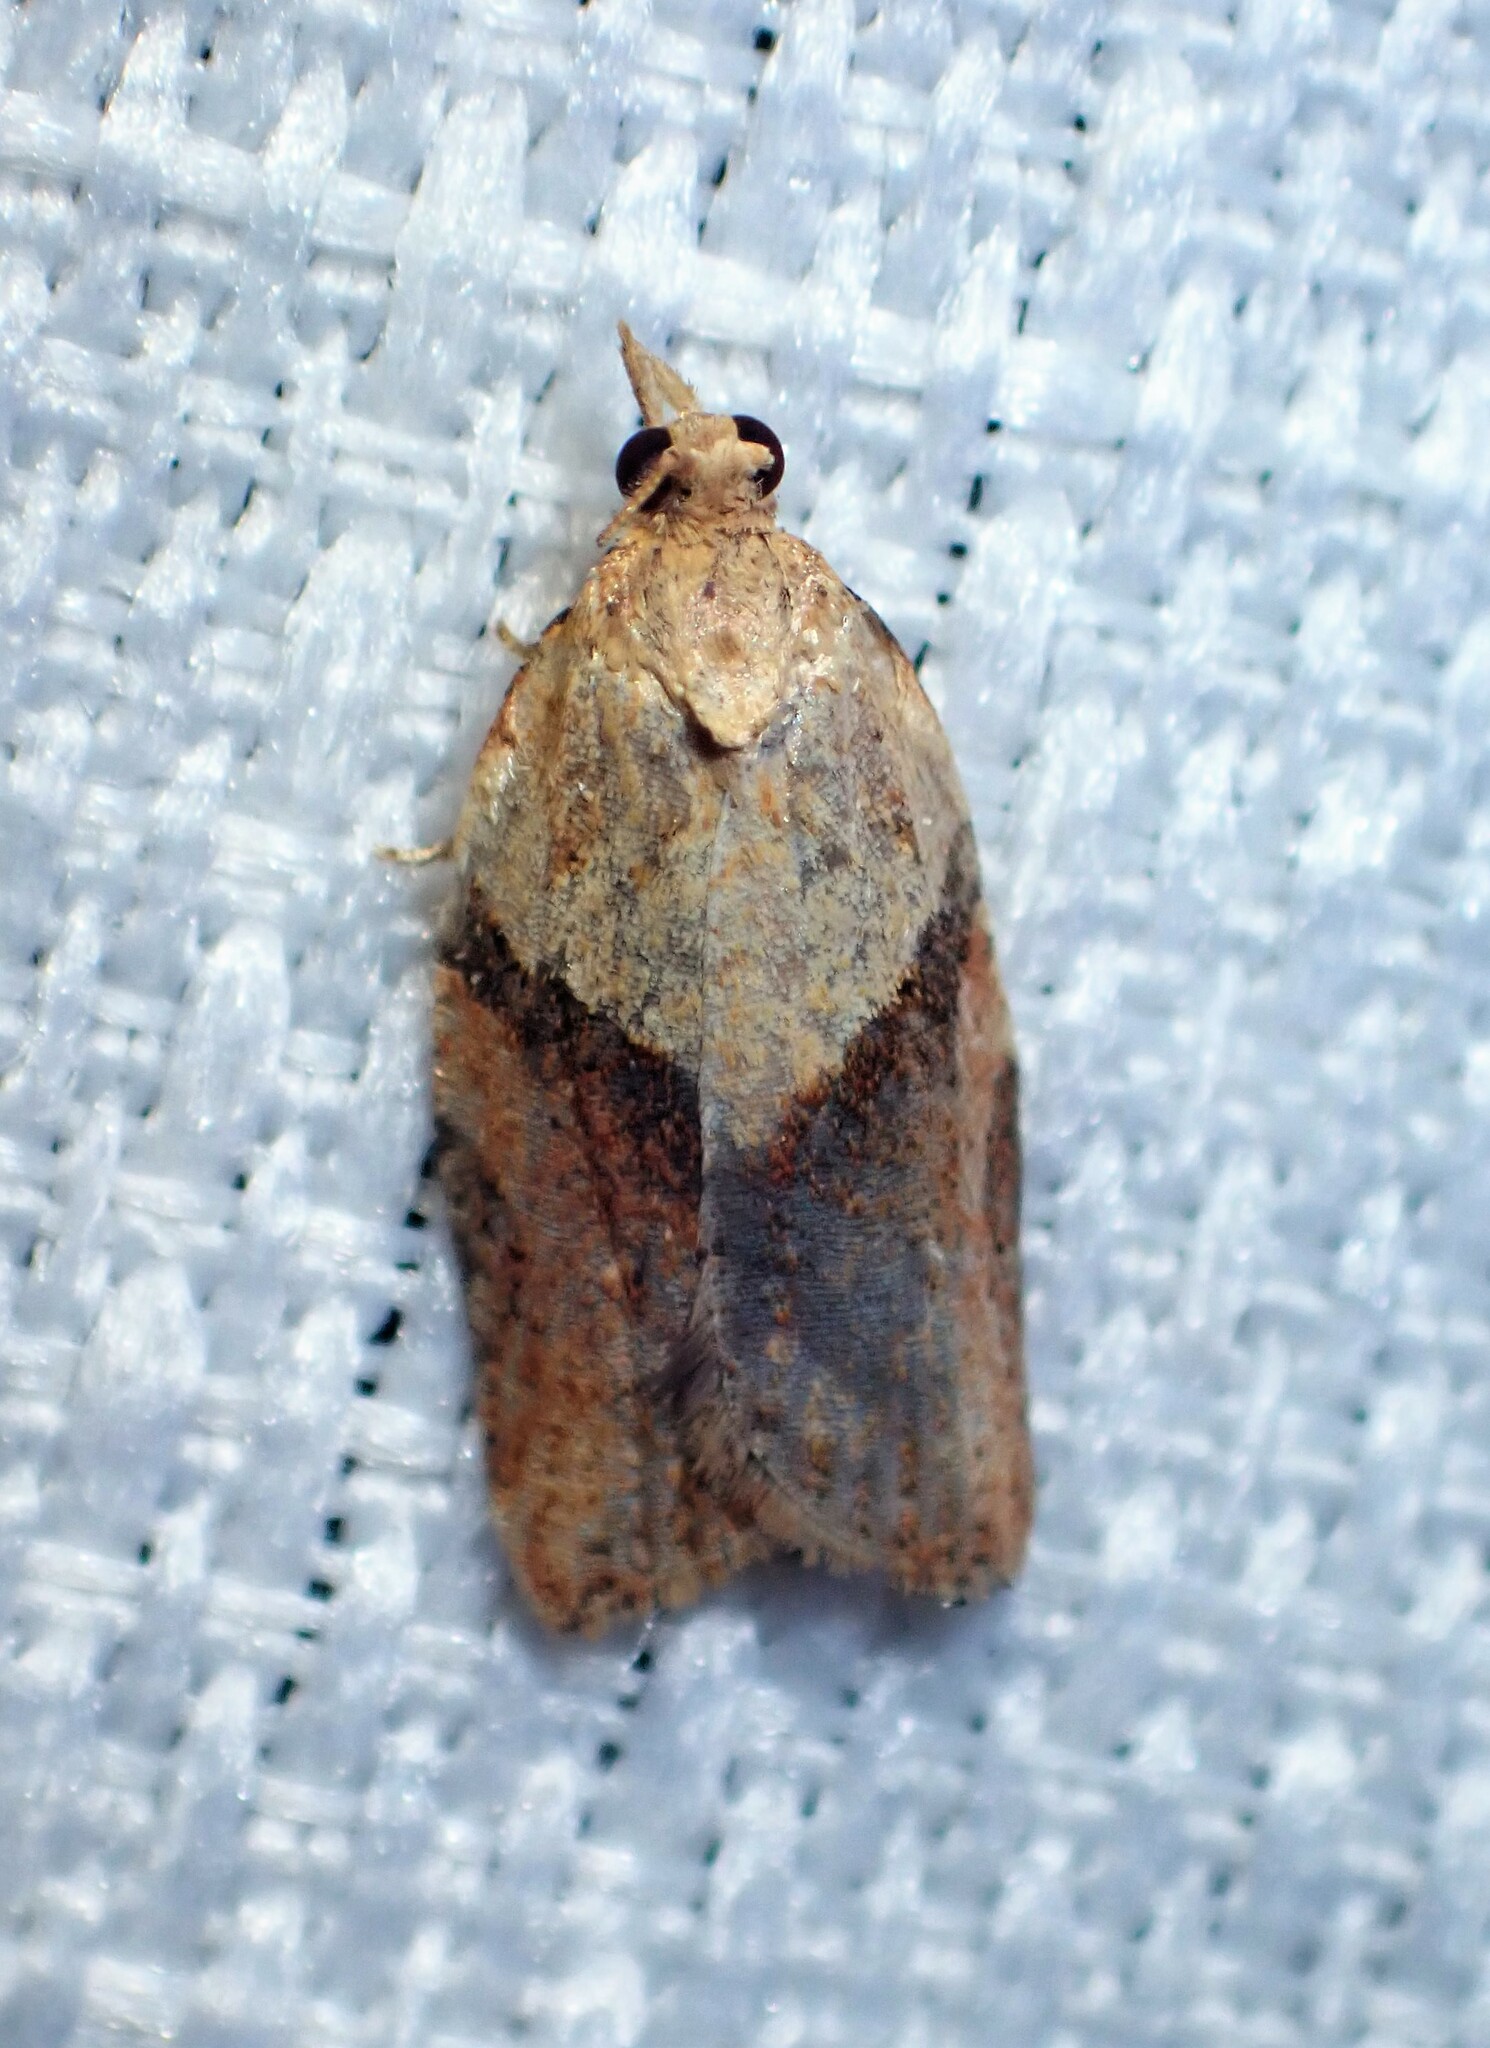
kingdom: Animalia
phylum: Arthropoda
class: Insecta
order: Lepidoptera
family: Tortricidae
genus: Epiphyas
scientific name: Epiphyas postvittana
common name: Light brown apple moth
